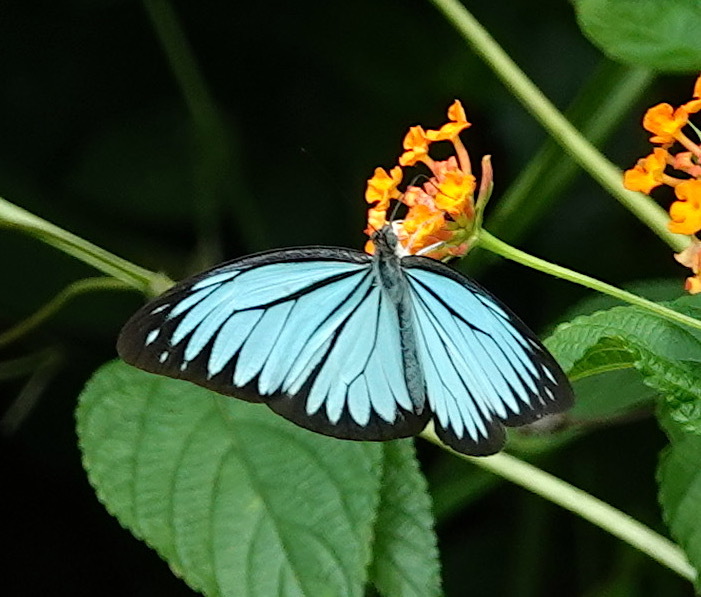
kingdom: Animalia
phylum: Arthropoda
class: Insecta
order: Lepidoptera
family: Pieridae
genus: Pareronia
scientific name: Pareronia valeria
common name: Common wanderer?
